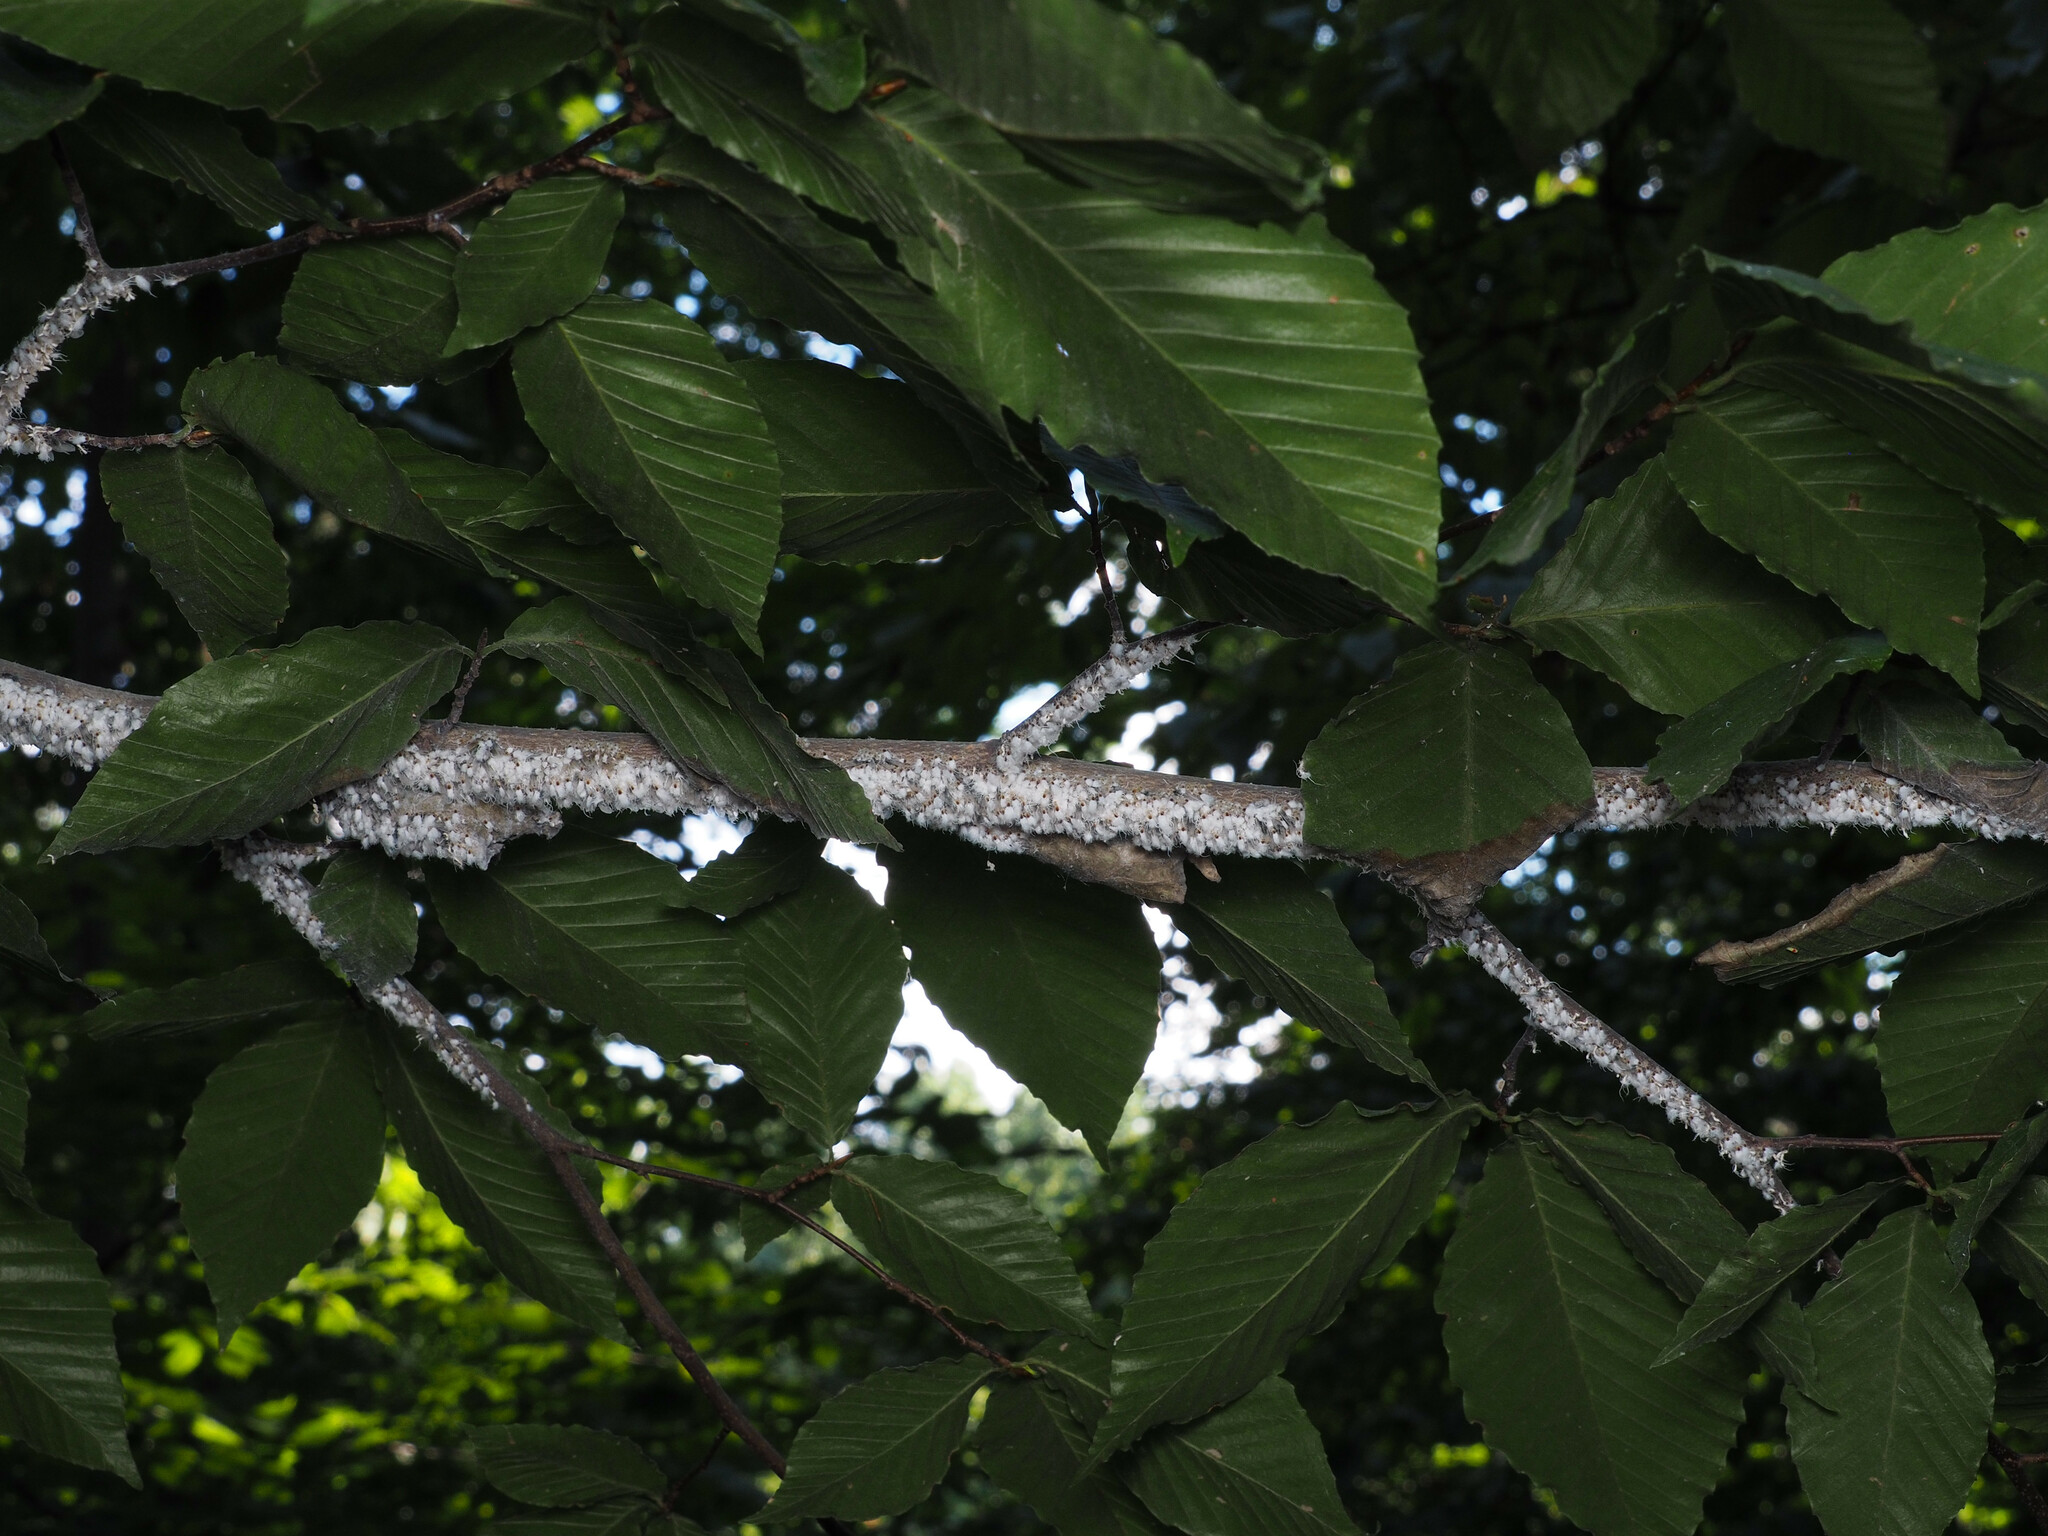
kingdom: Animalia
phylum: Arthropoda
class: Insecta
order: Hemiptera
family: Aphididae
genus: Grylloprociphilus
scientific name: Grylloprociphilus imbricator
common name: Beech blight aphid
